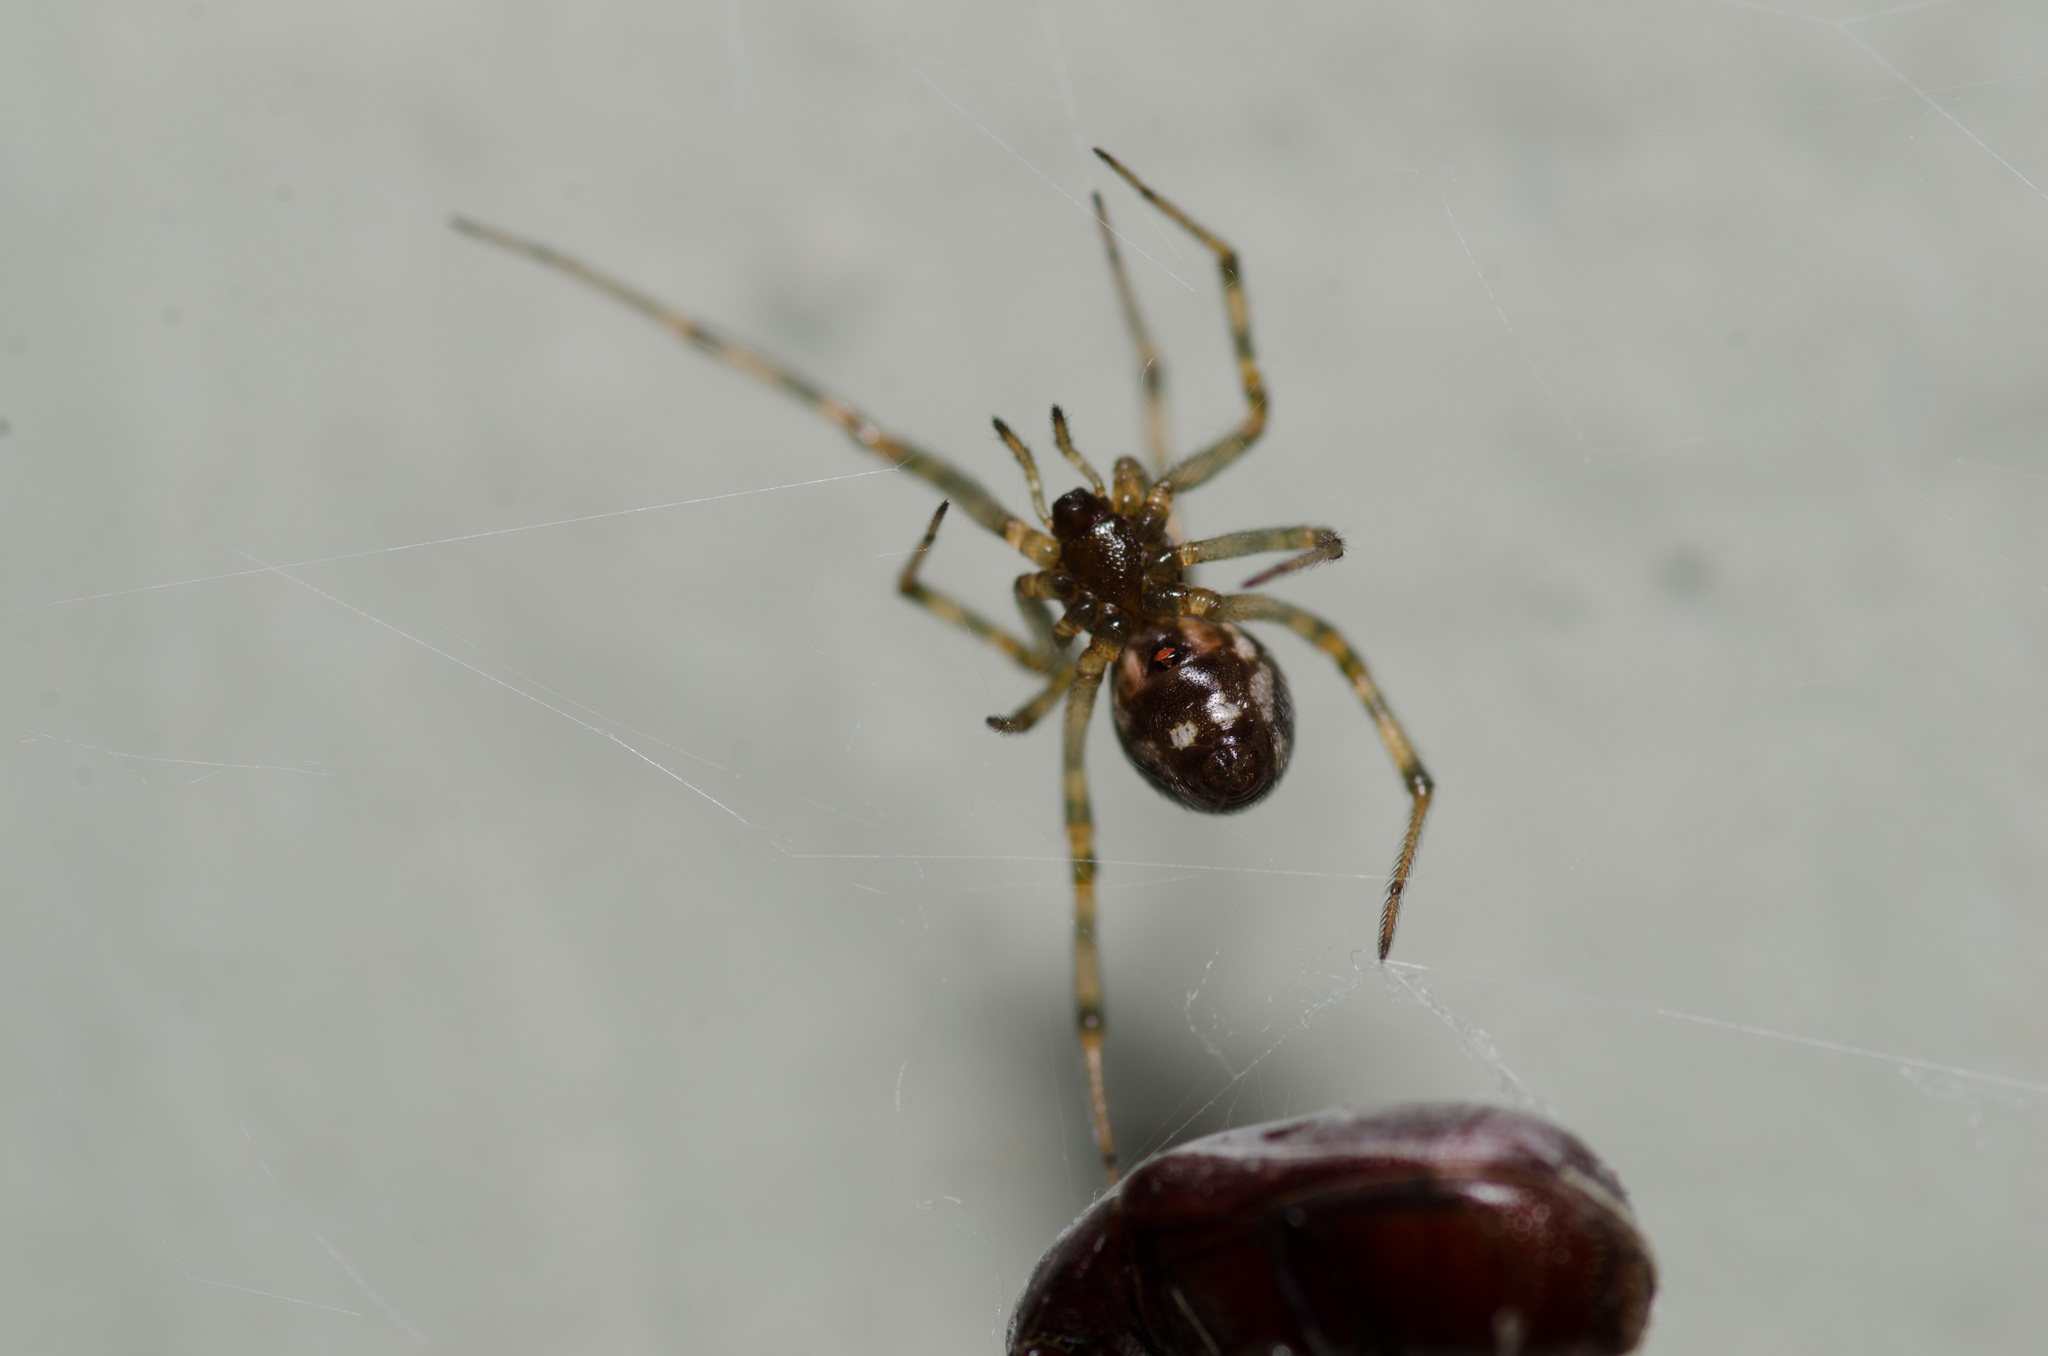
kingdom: Animalia
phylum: Arthropoda
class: Arachnida
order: Araneae
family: Theridiidae
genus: Steatoda
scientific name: Steatoda triangulosa
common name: Triangulate bud spider
